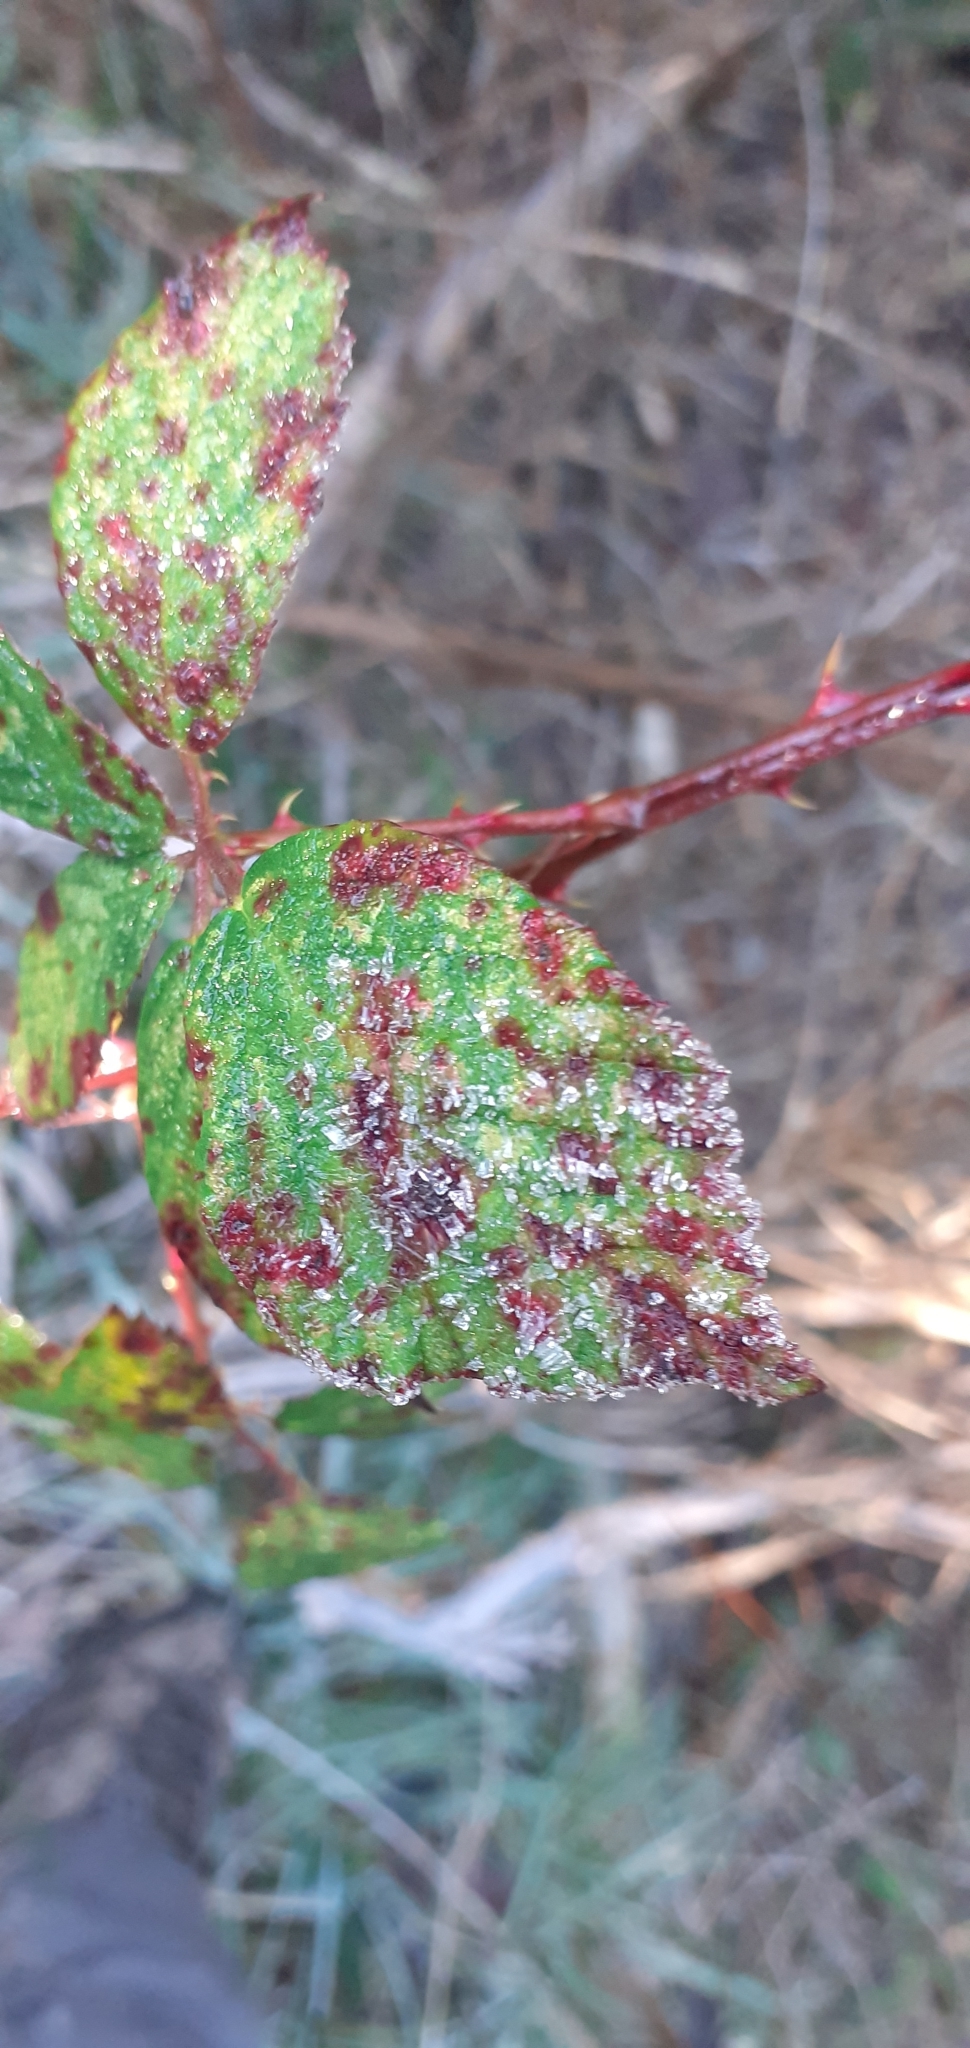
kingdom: Fungi
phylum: Basidiomycota
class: Pucciniomycetes
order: Pucciniales
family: Phragmidiaceae
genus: Phragmidium
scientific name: Phragmidium violaceum
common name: Violet bramble rust
